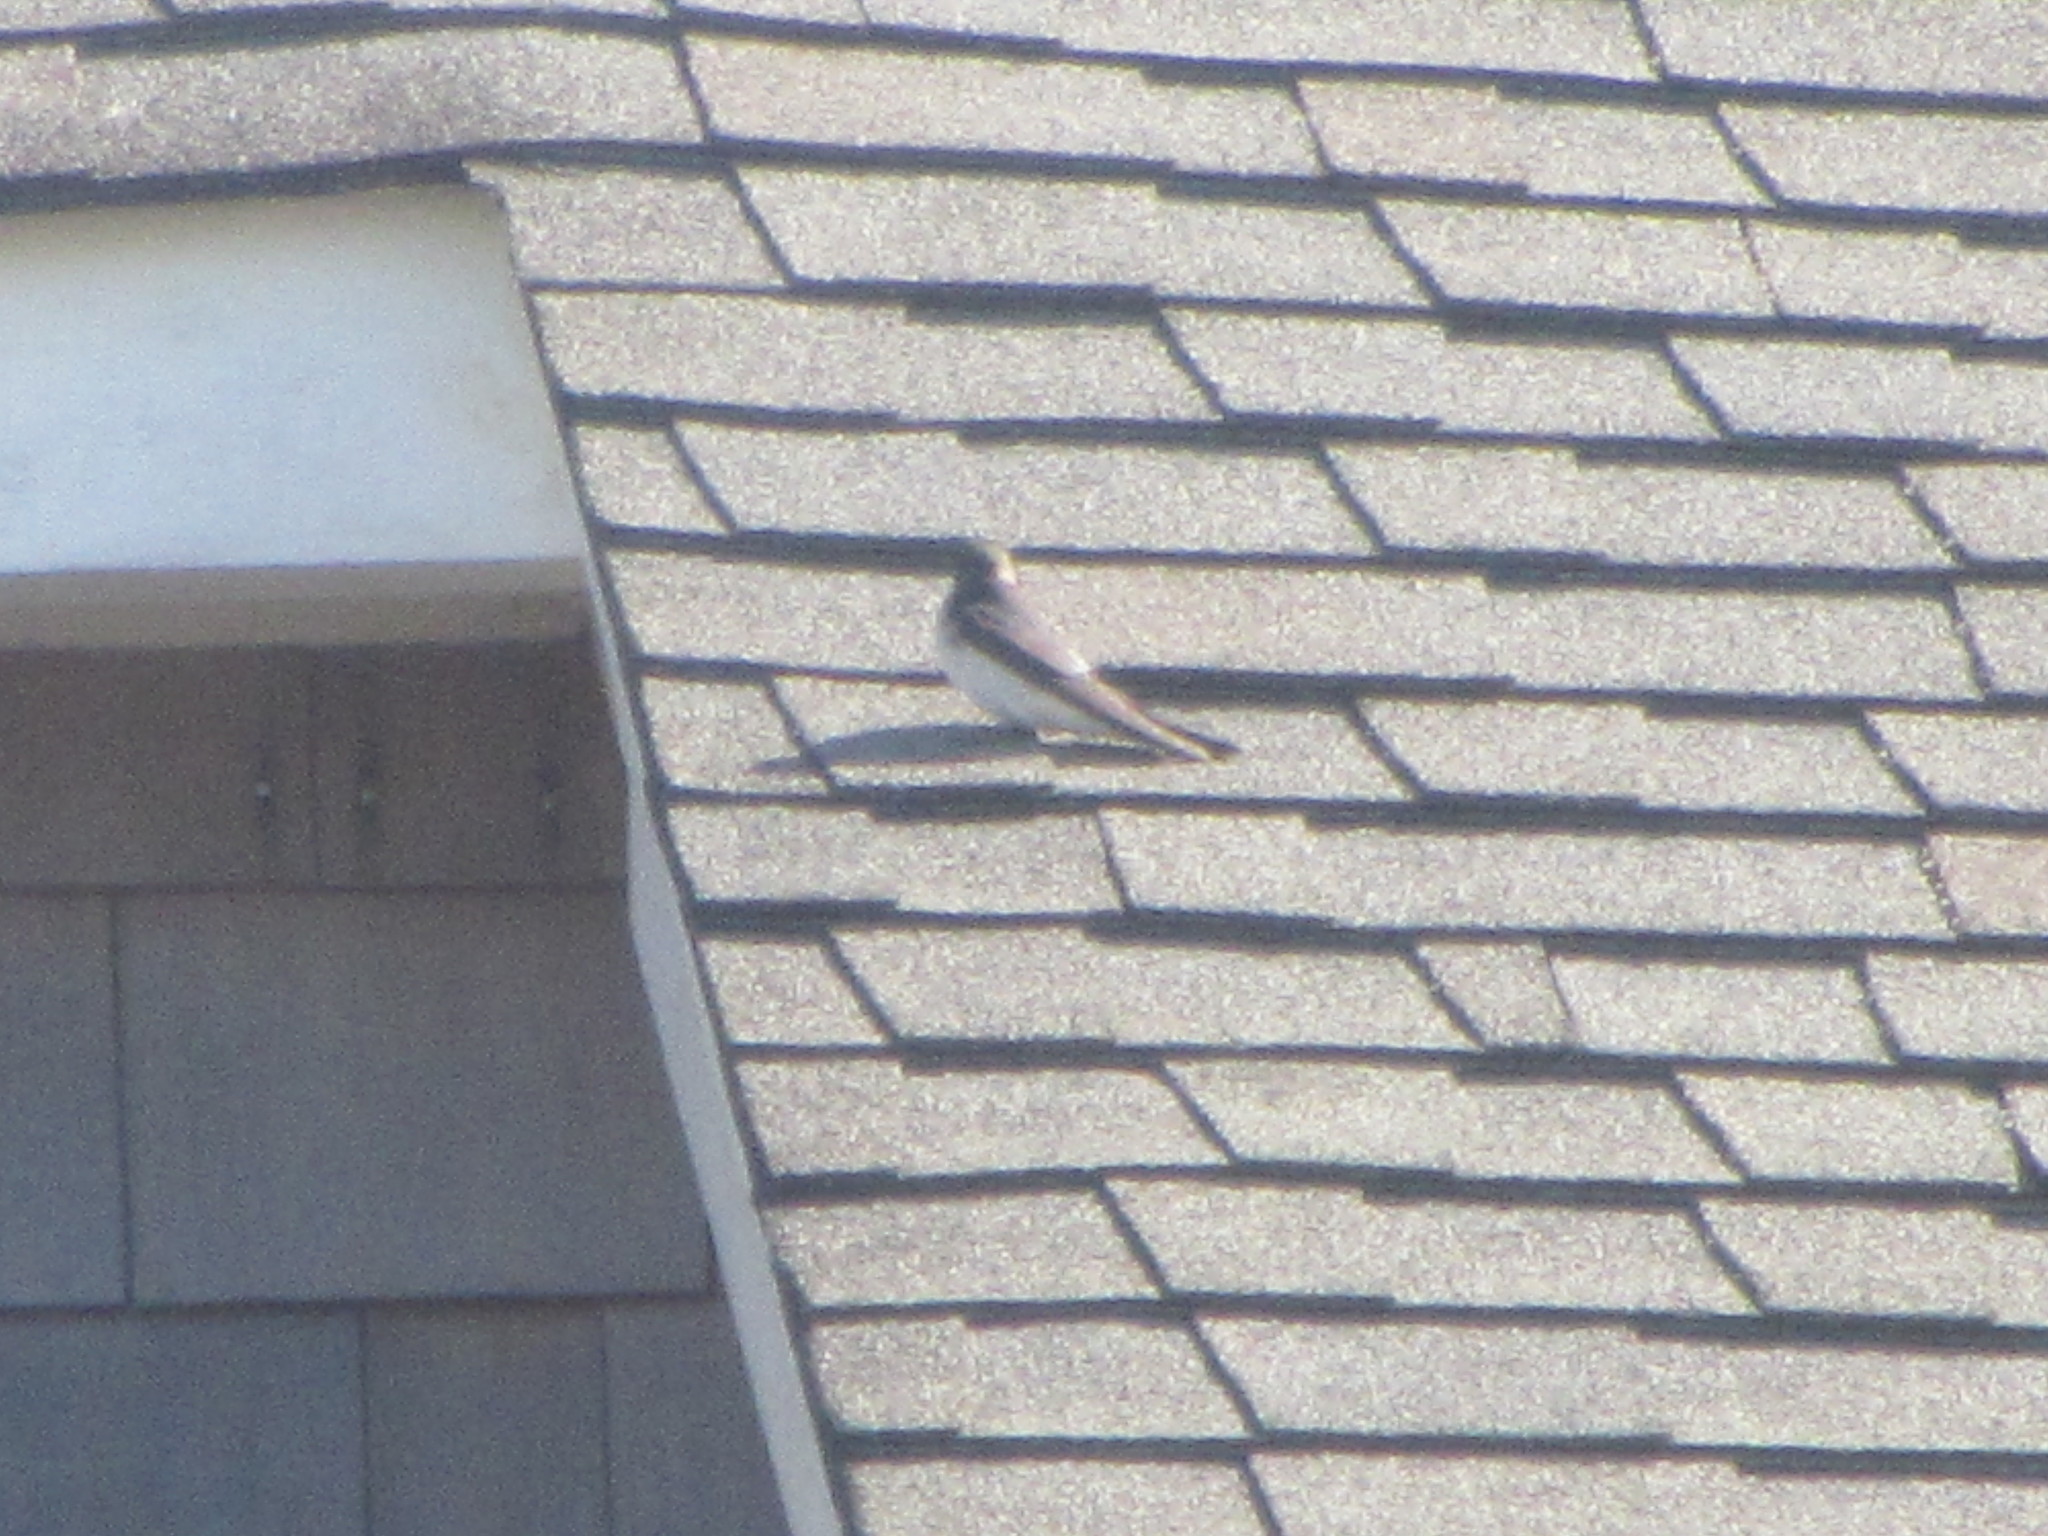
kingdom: Animalia
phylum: Chordata
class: Aves
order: Passeriformes
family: Hirundinidae
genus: Hirundo
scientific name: Hirundo rustica
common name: Barn swallow
